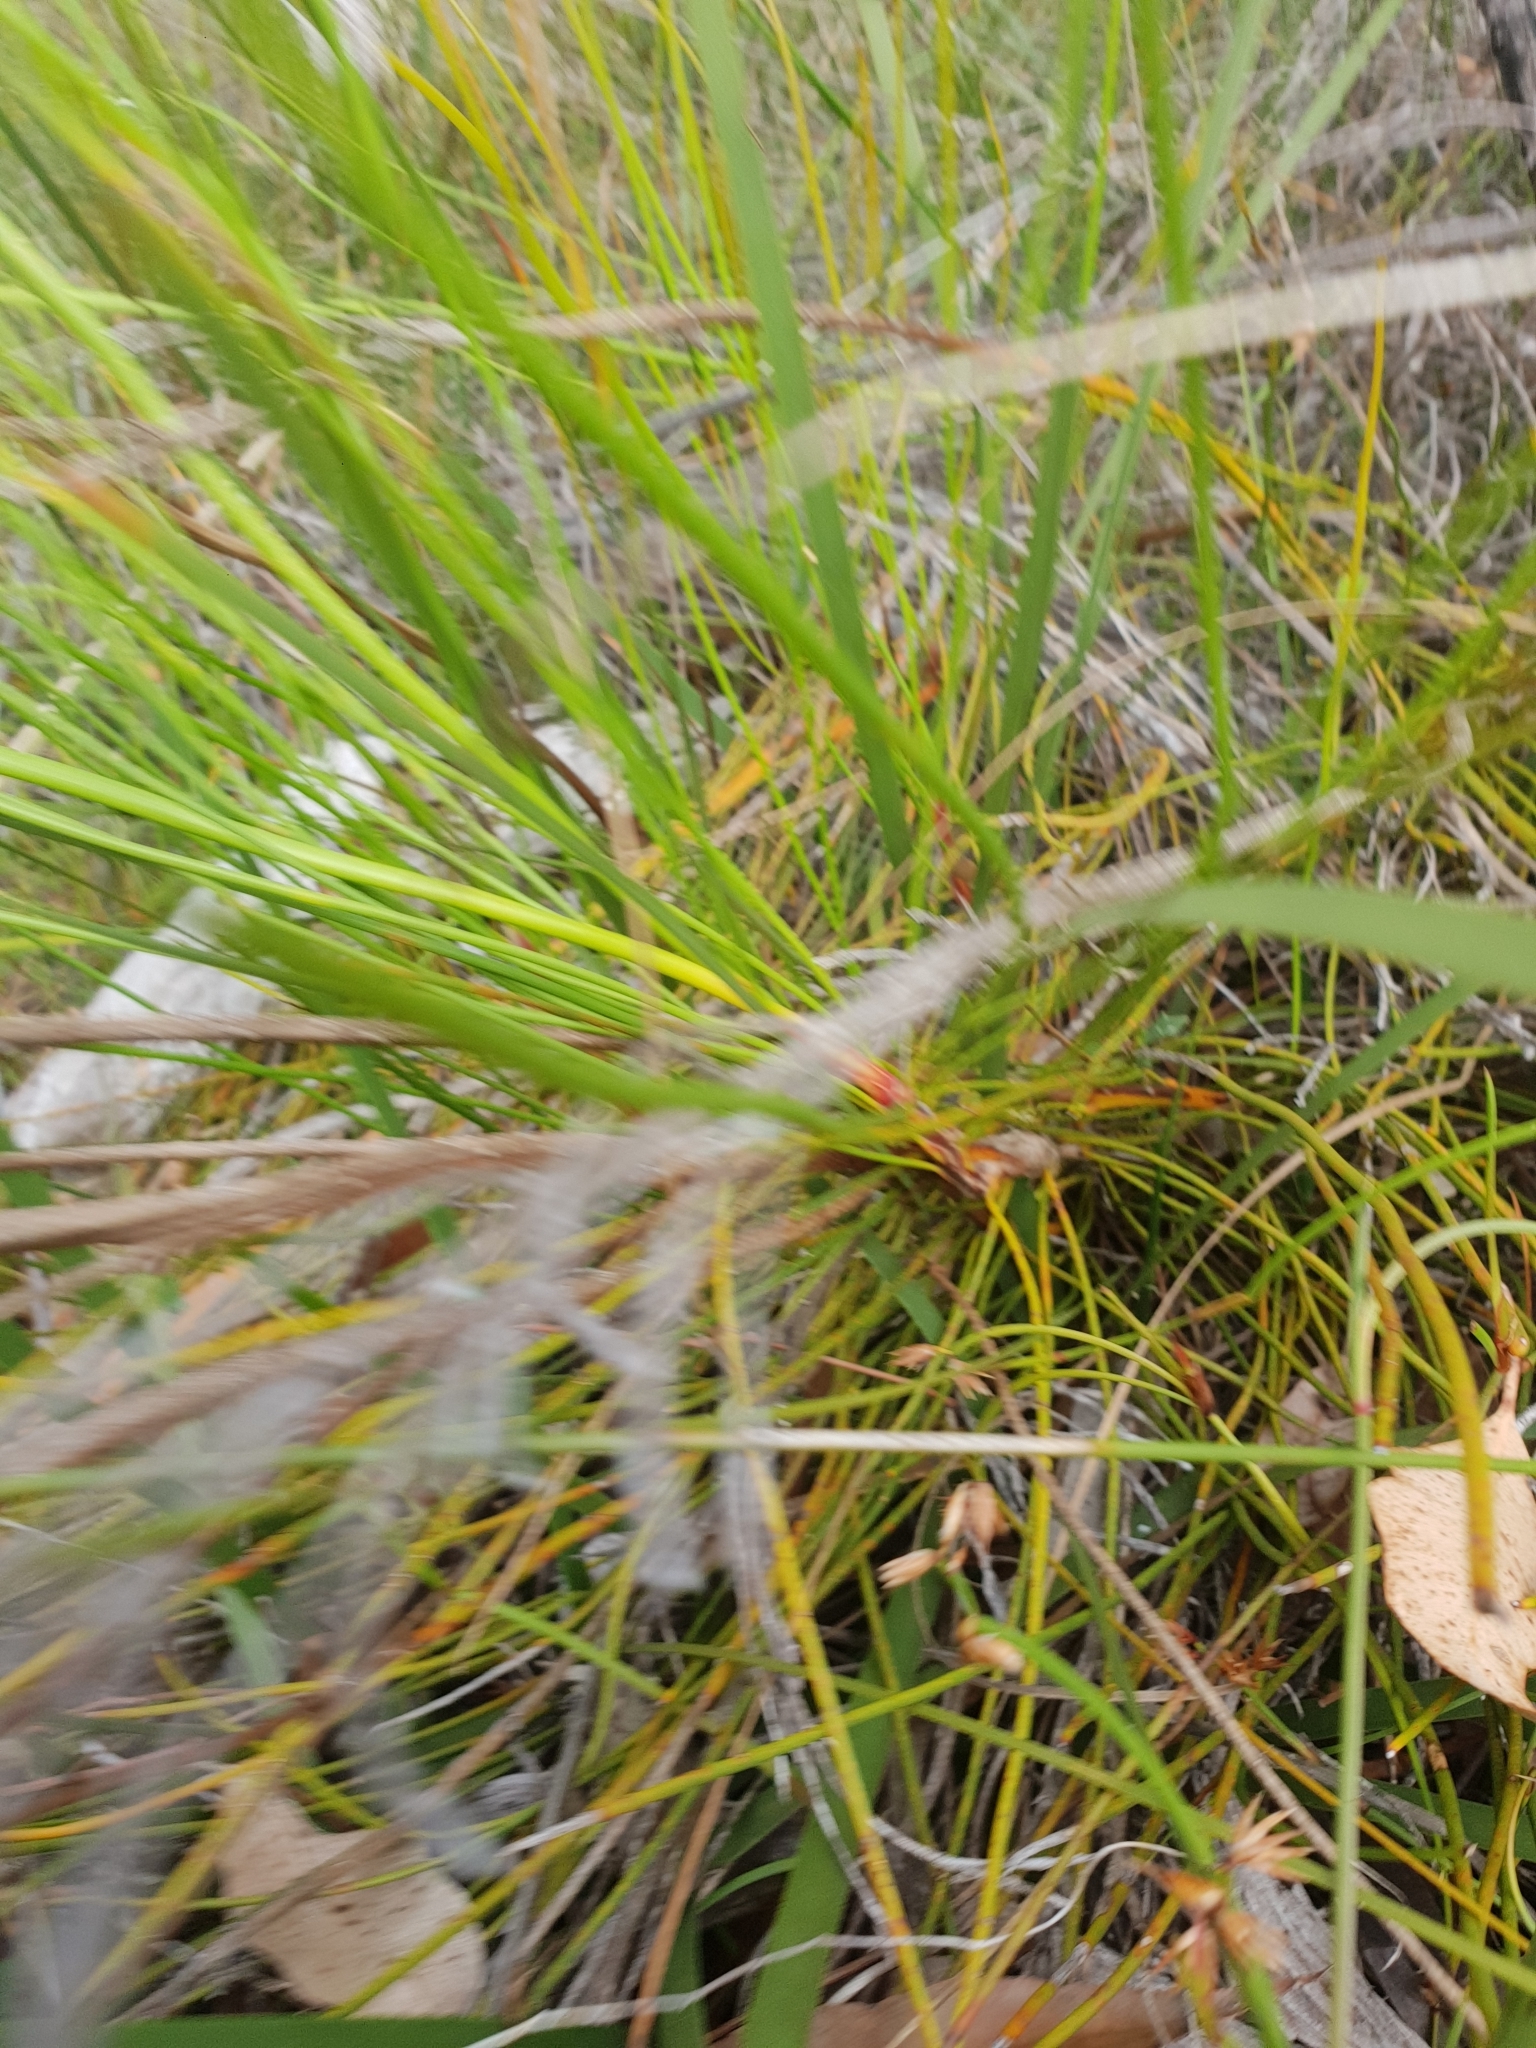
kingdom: Plantae
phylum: Tracheophyta
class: Magnoliopsida
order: Proteales
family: Proteaceae
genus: Conospermum
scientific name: Conospermum teretifolium
